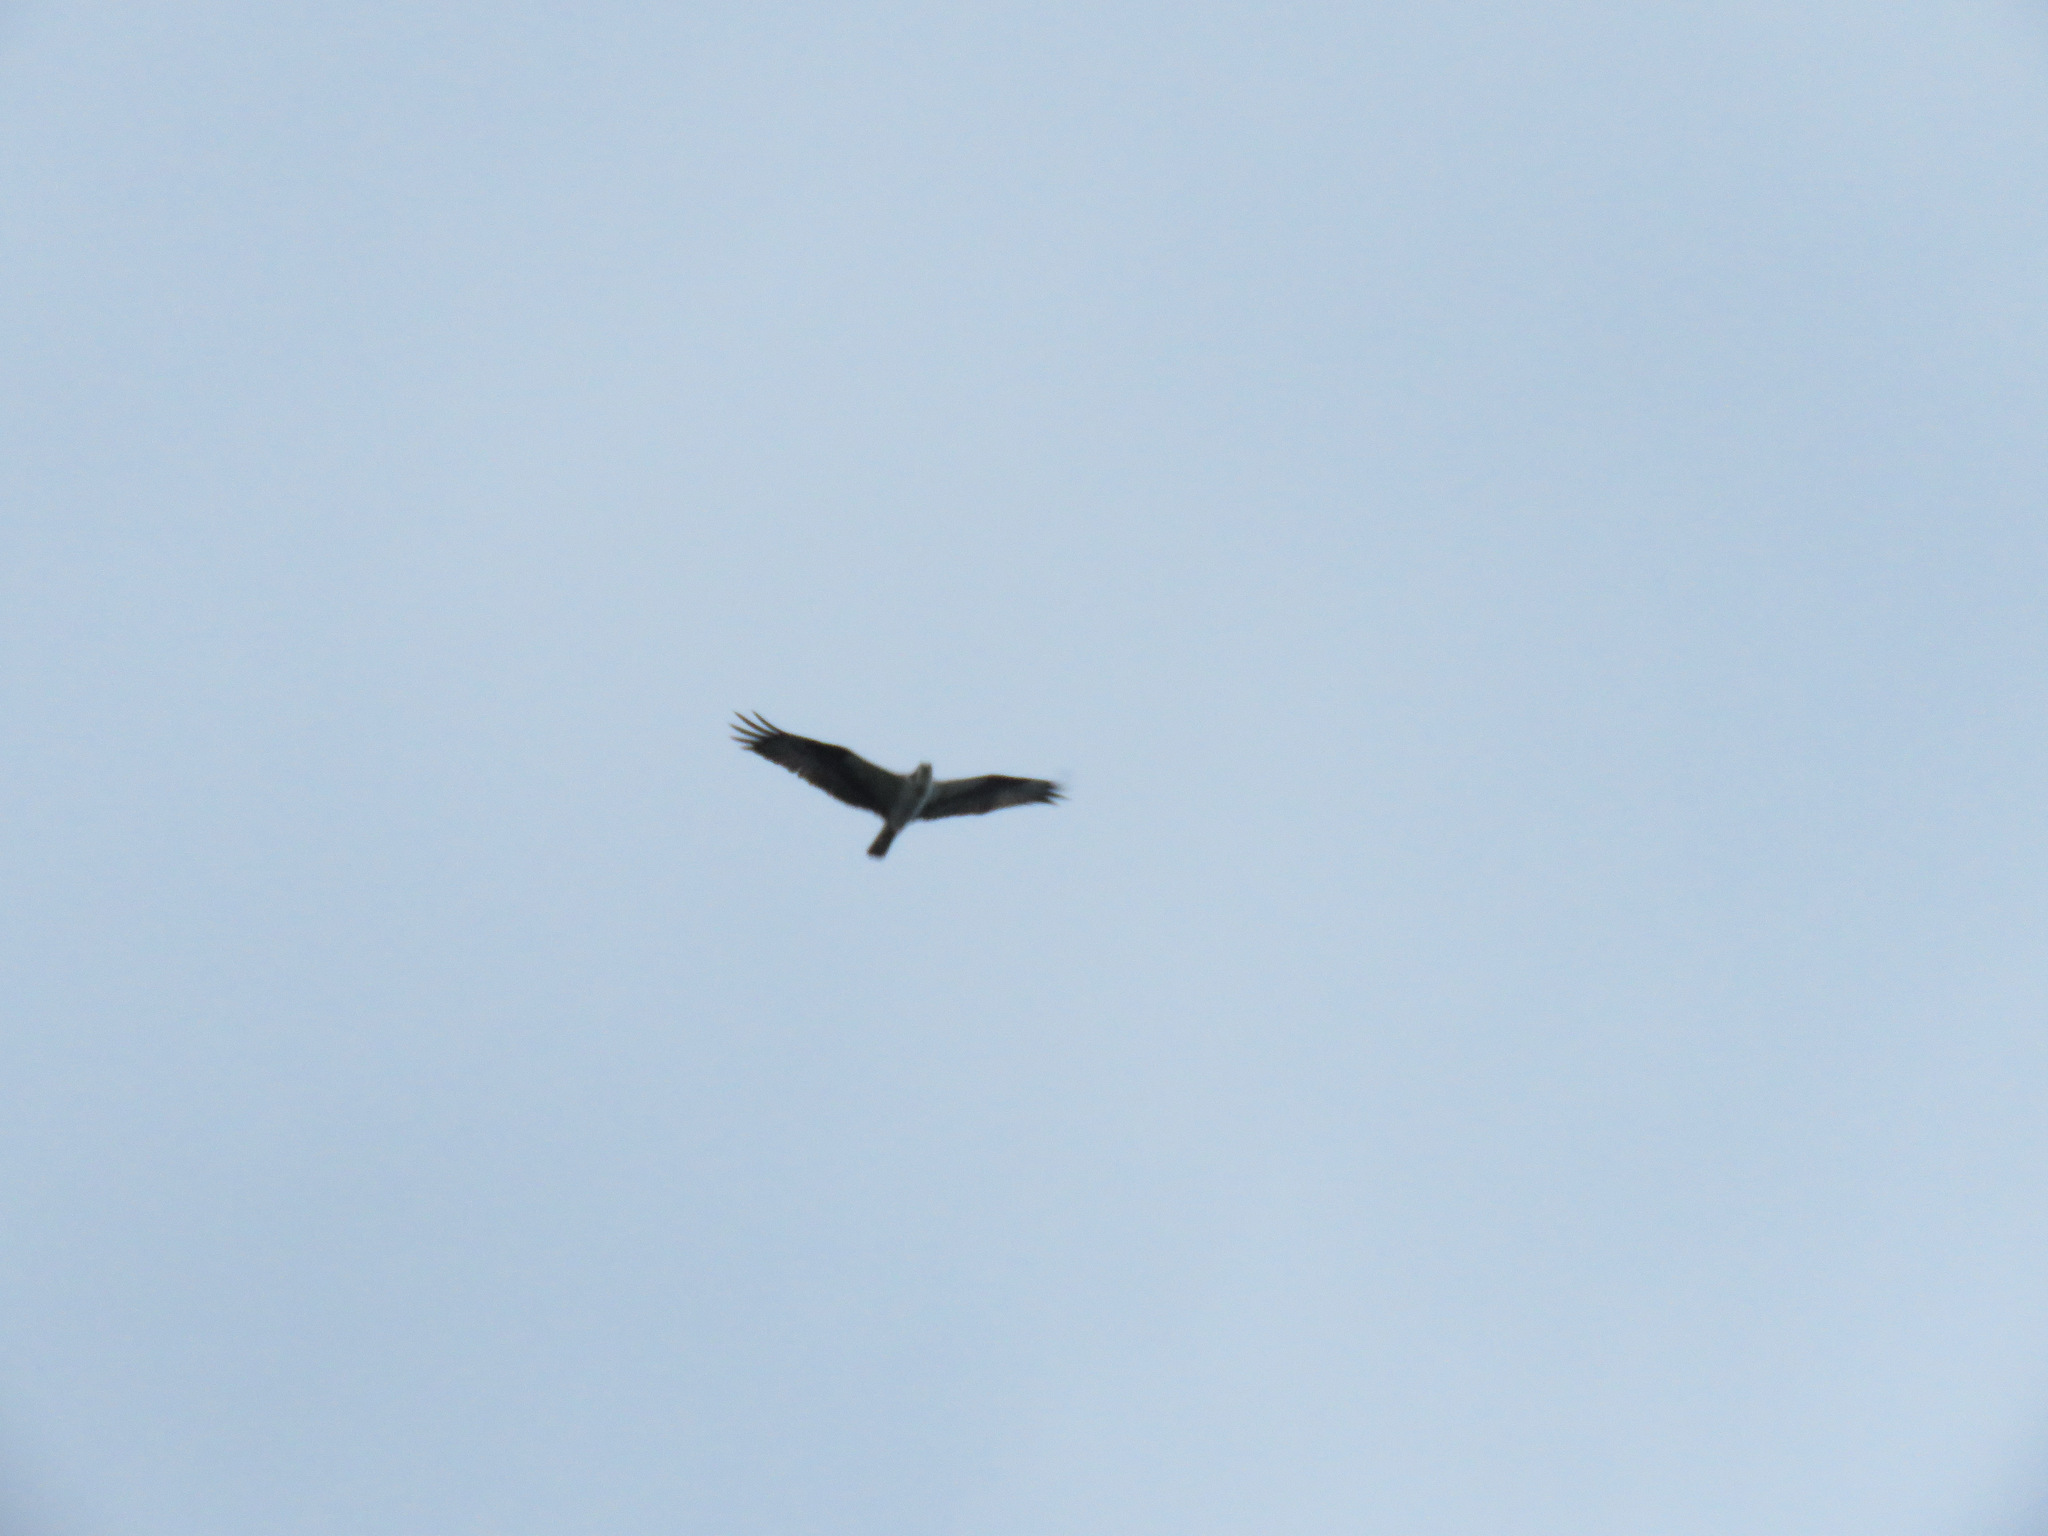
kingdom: Animalia
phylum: Chordata
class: Aves
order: Accipitriformes
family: Pandionidae
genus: Pandion
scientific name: Pandion haliaetus
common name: Osprey
